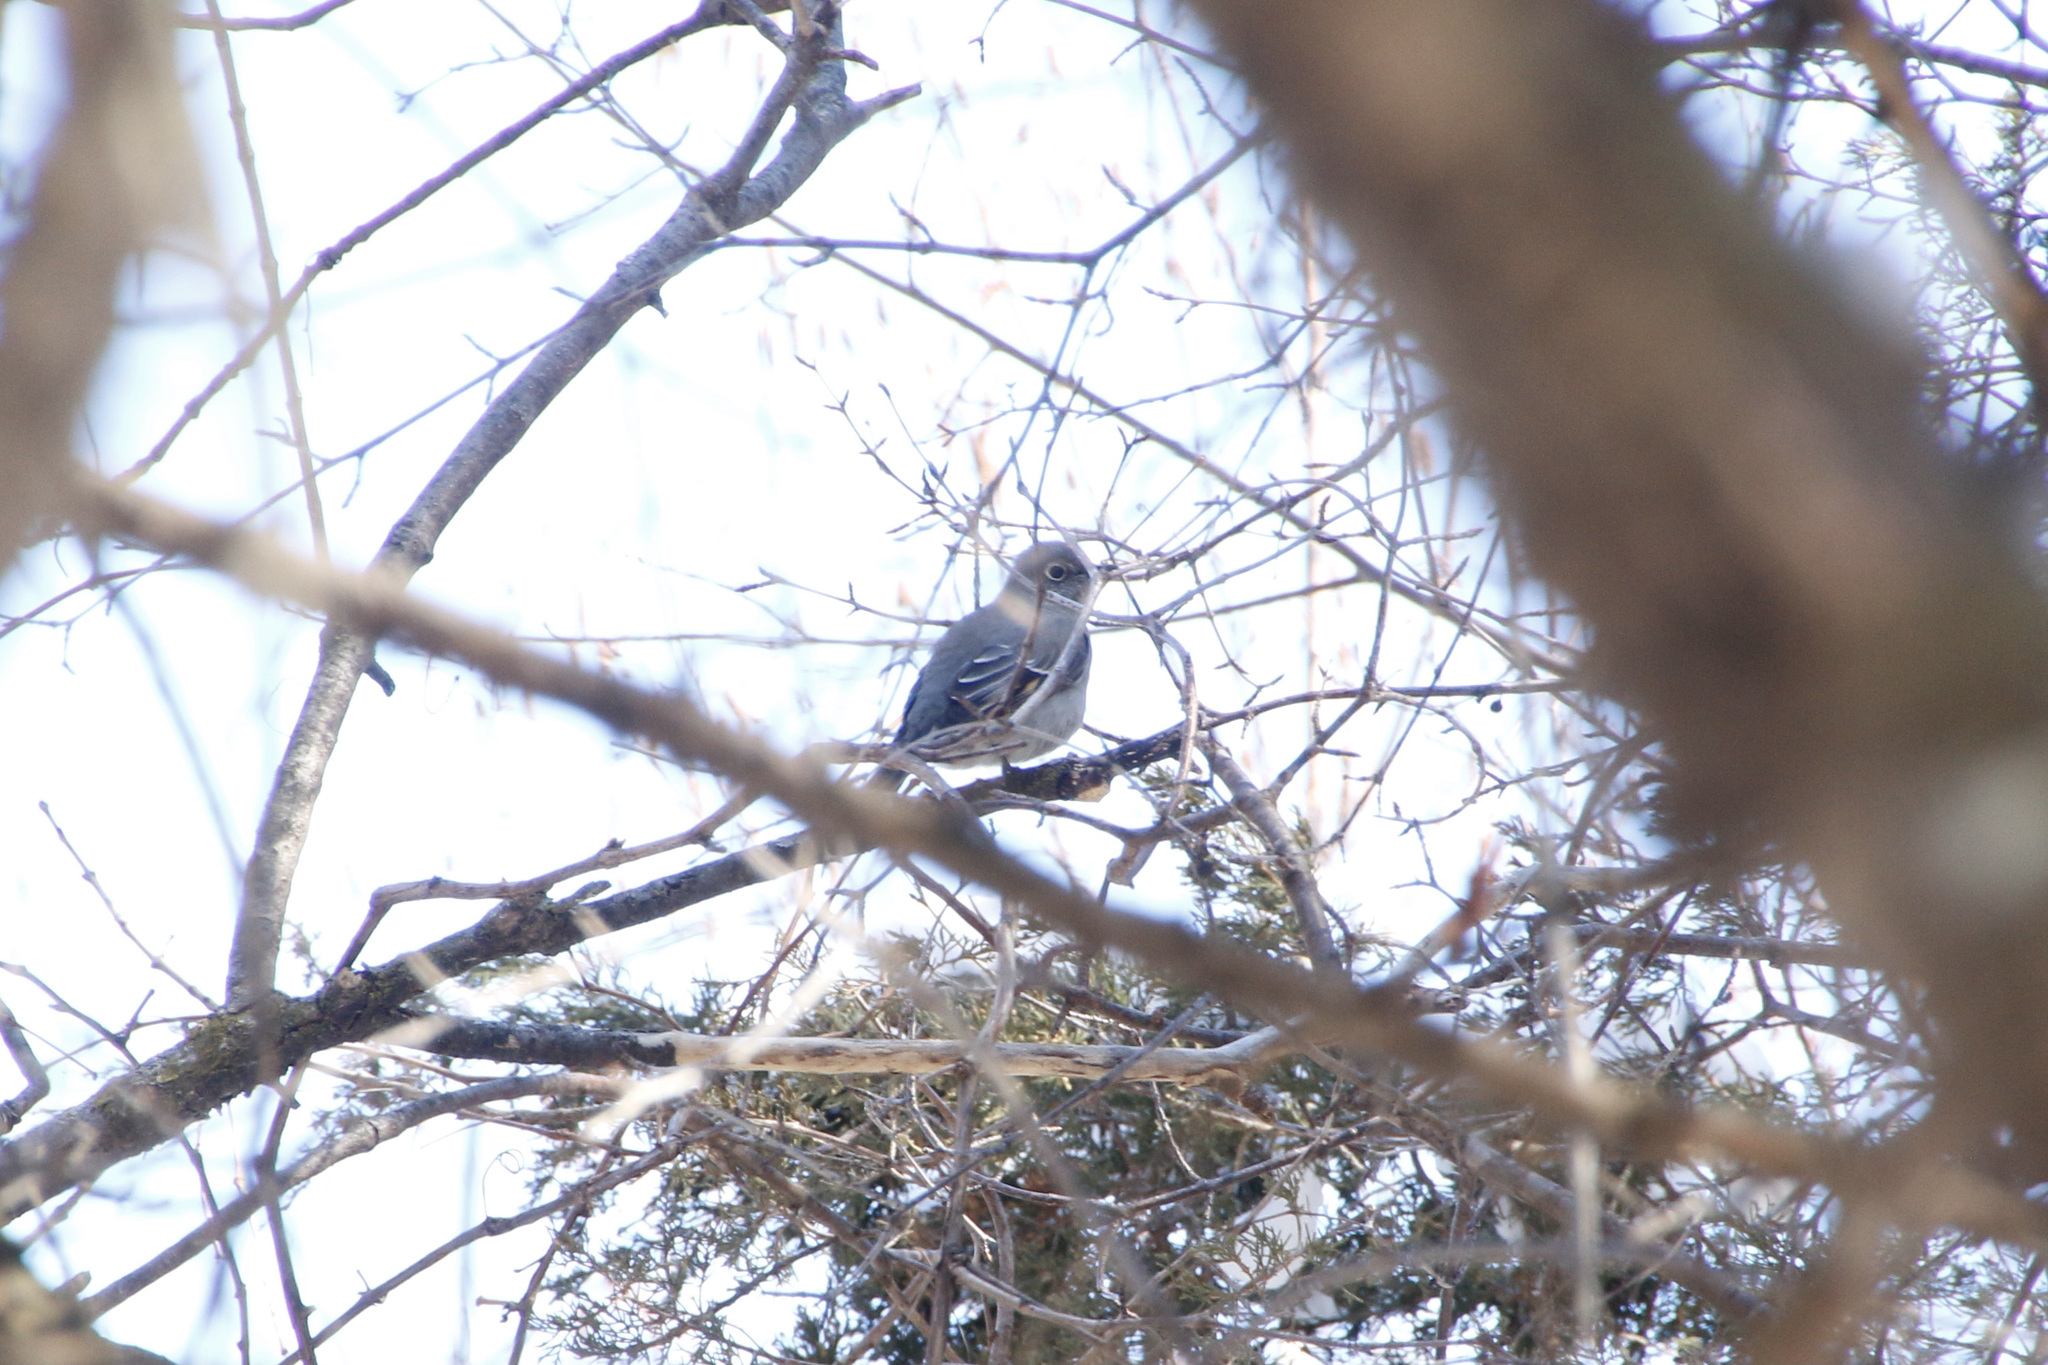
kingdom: Animalia
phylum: Chordata
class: Aves
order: Passeriformes
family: Turdidae
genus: Myadestes
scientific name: Myadestes townsendi
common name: Townsend's solitaire
